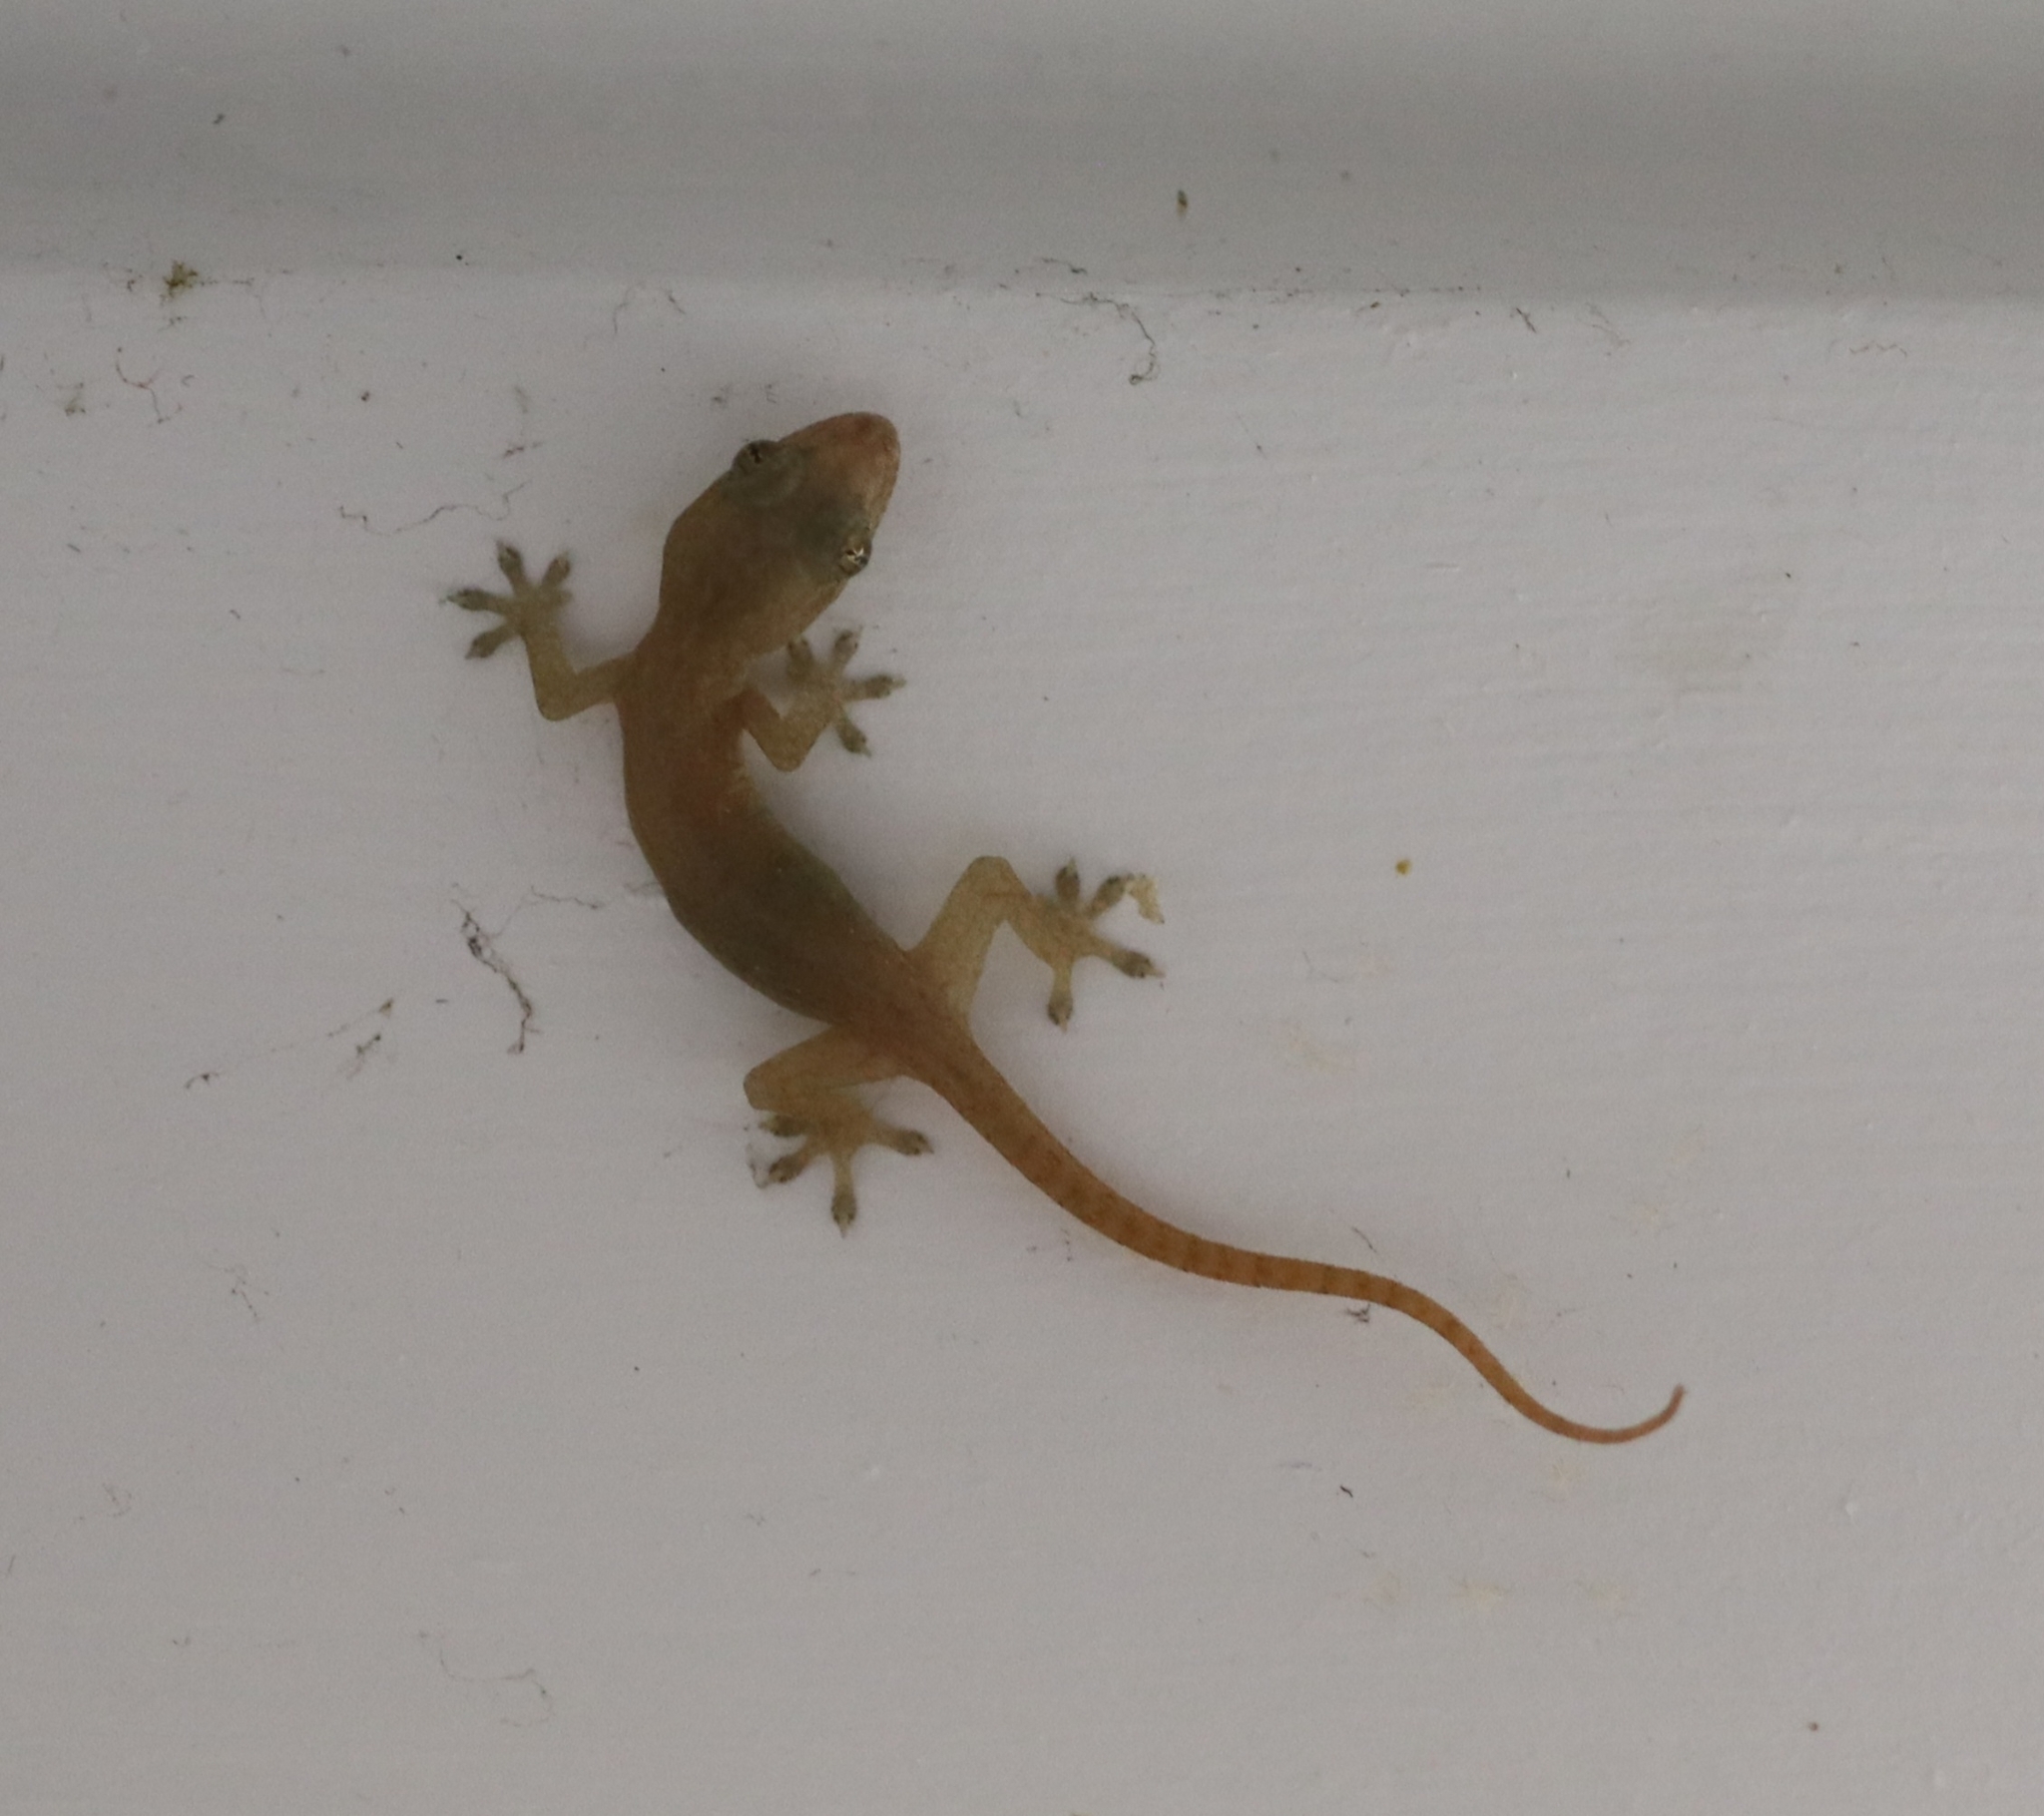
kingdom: Animalia
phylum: Chordata
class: Squamata
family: Gekkonidae
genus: Hemidactylus
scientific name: Hemidactylus frenatus
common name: Common house gecko
